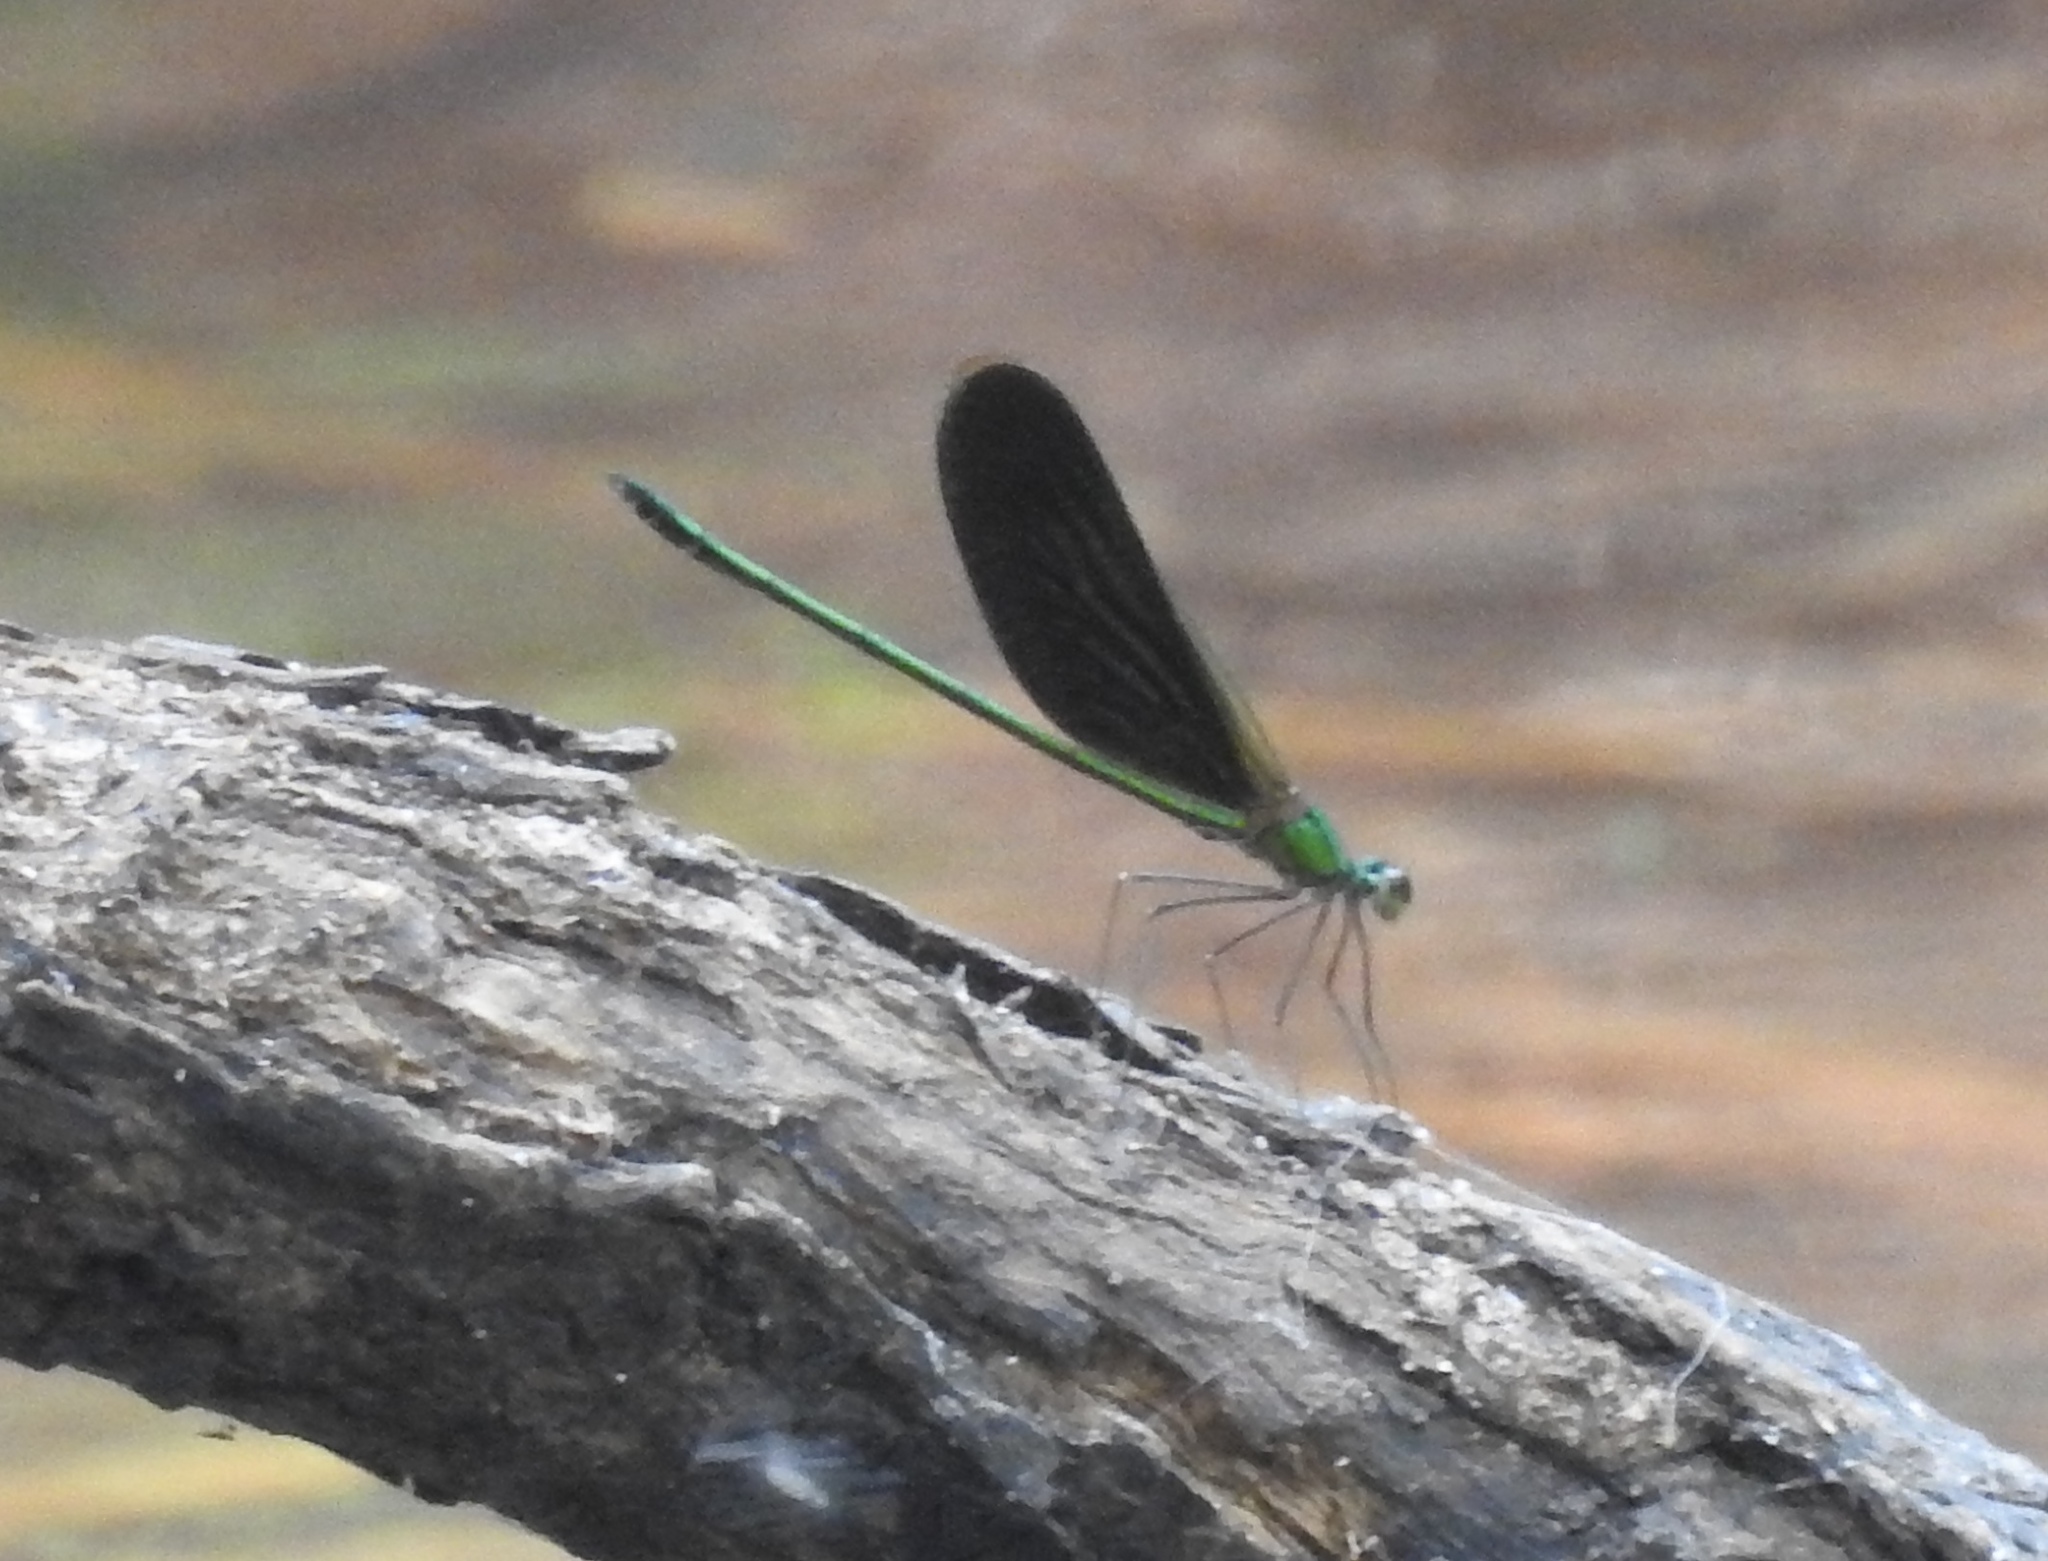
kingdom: Animalia
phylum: Arthropoda
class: Insecta
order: Odonata
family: Calopterygidae
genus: Neurobasis
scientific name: Neurobasis chinensis
